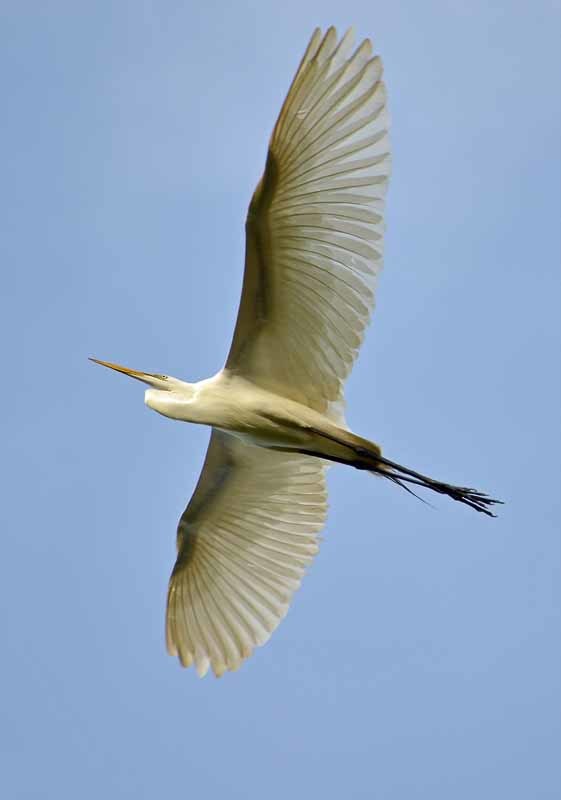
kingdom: Animalia
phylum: Chordata
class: Aves
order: Pelecaniformes
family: Ardeidae
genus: Ardea
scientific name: Ardea alba
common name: Great egret
